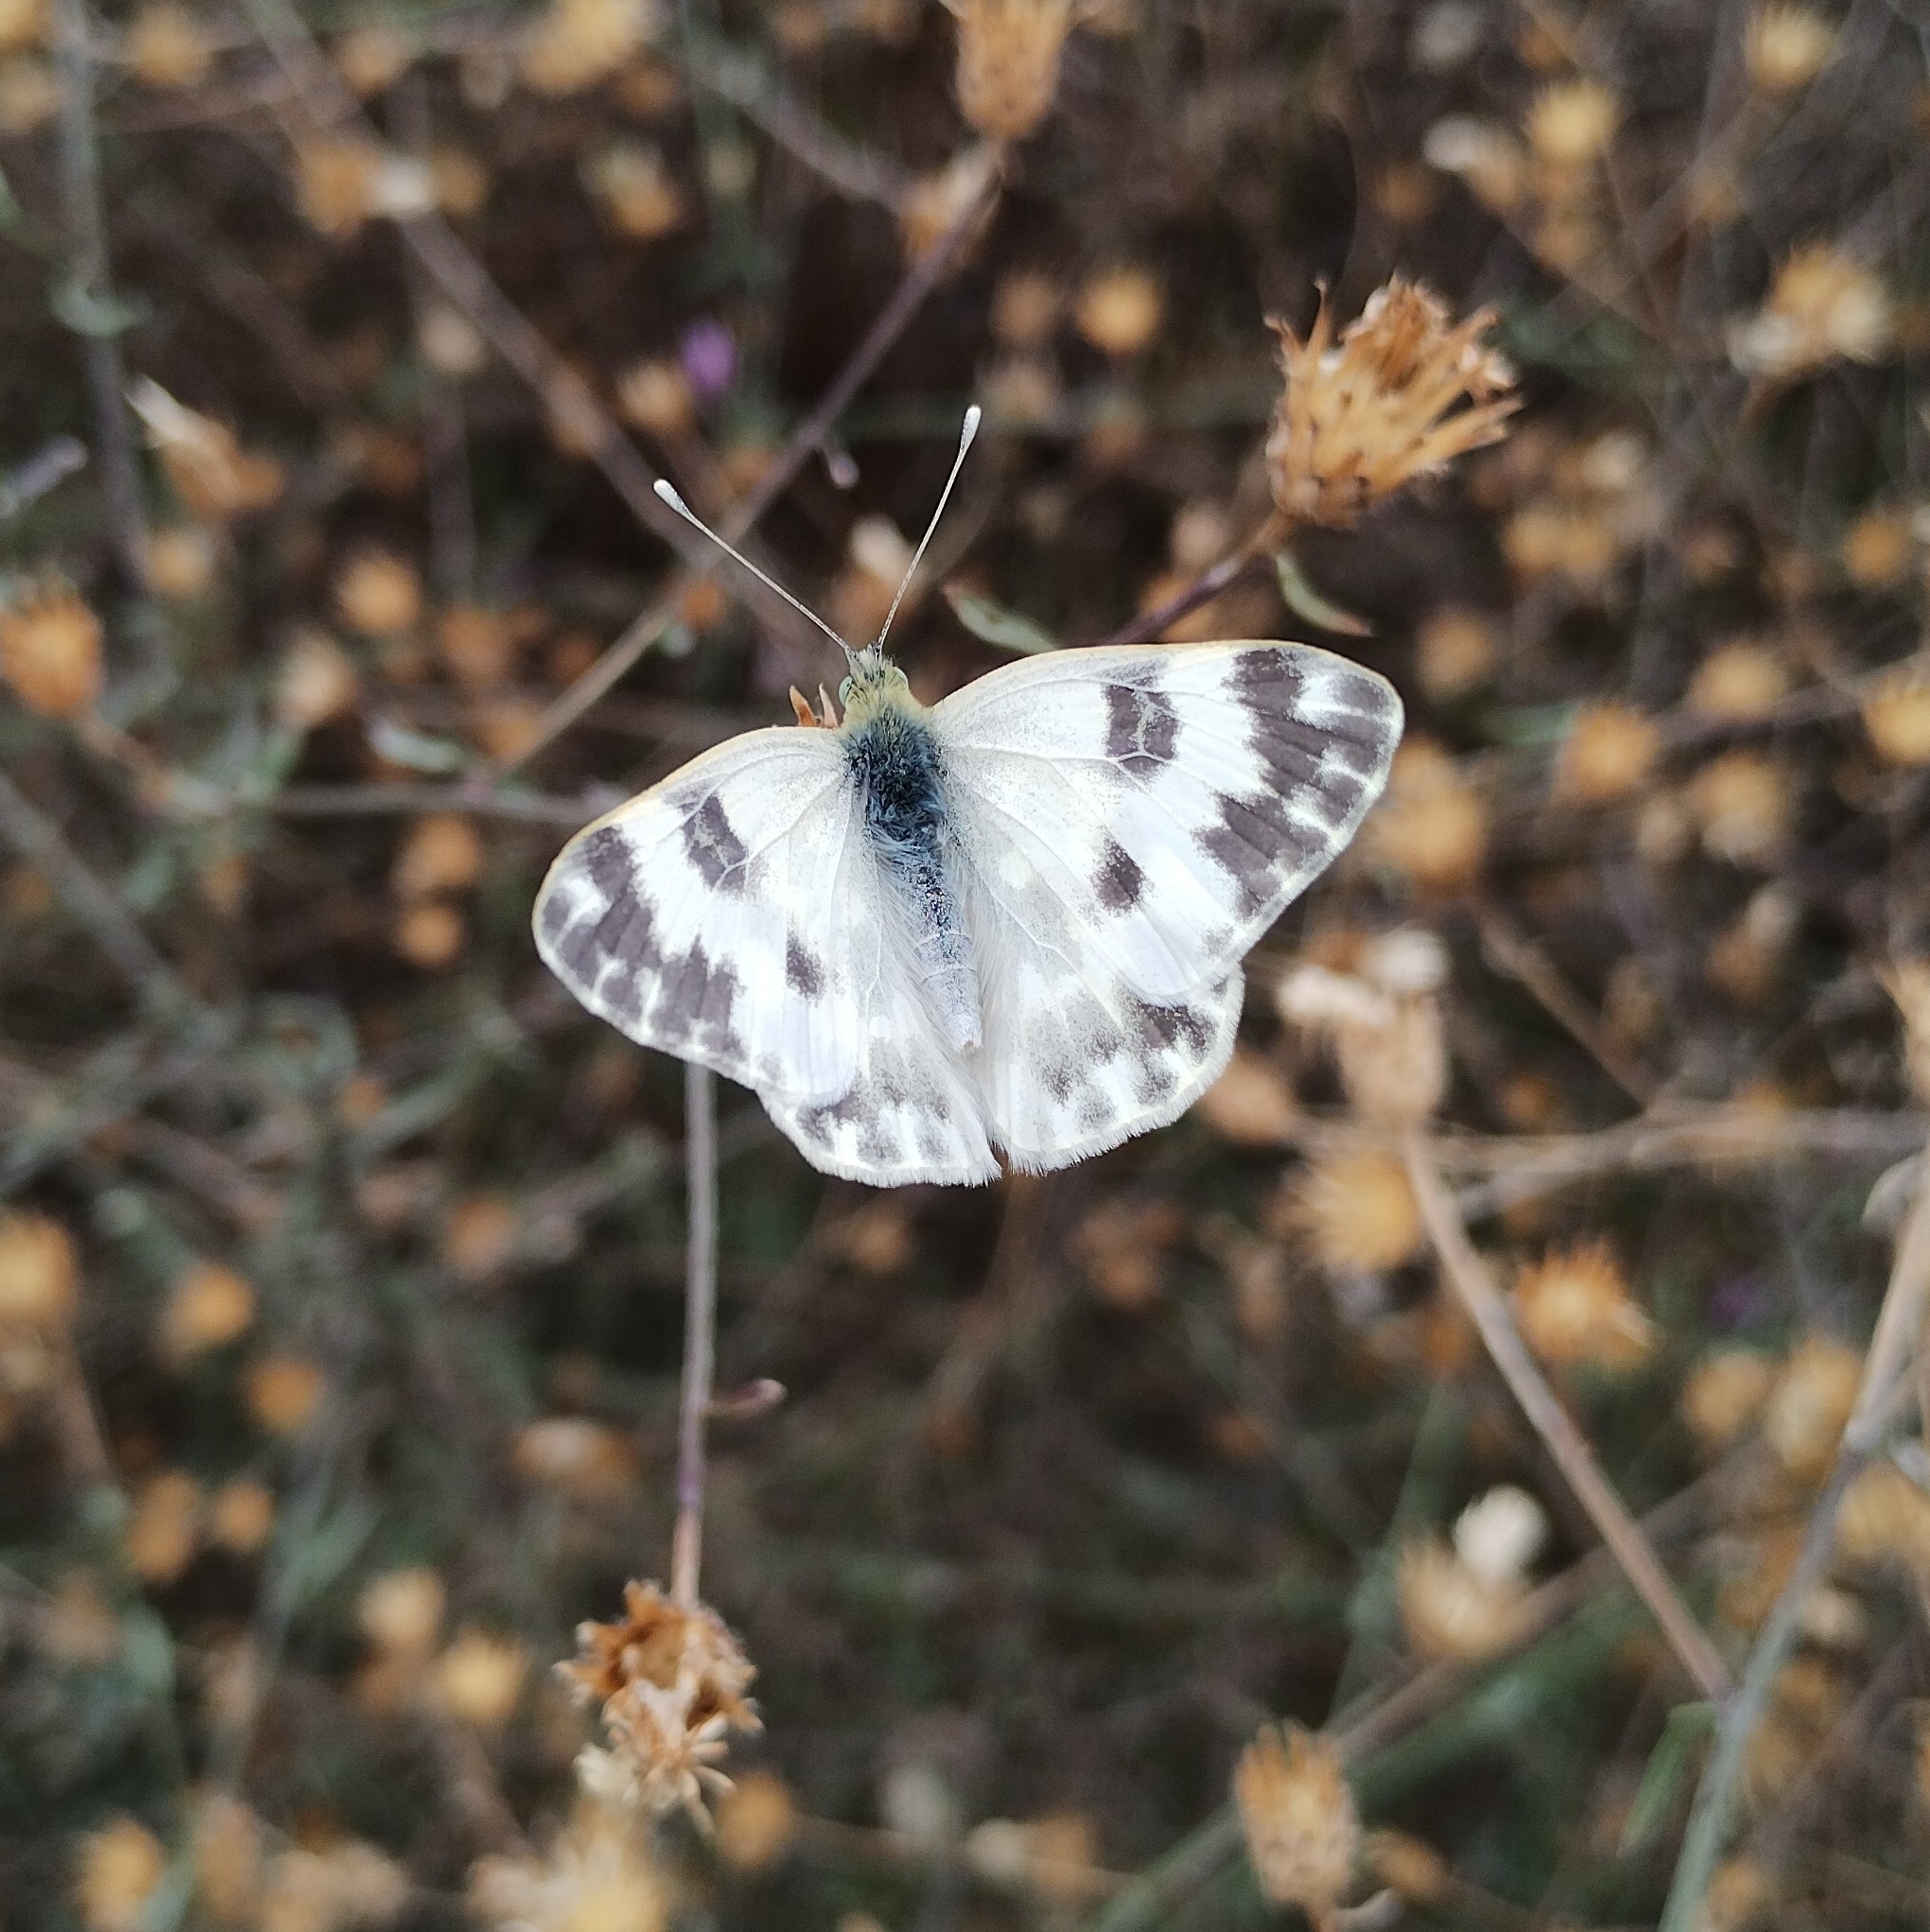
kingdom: Animalia
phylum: Arthropoda
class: Insecta
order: Lepidoptera
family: Pieridae
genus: Pontia
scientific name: Pontia edusa
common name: Eastern bath white
